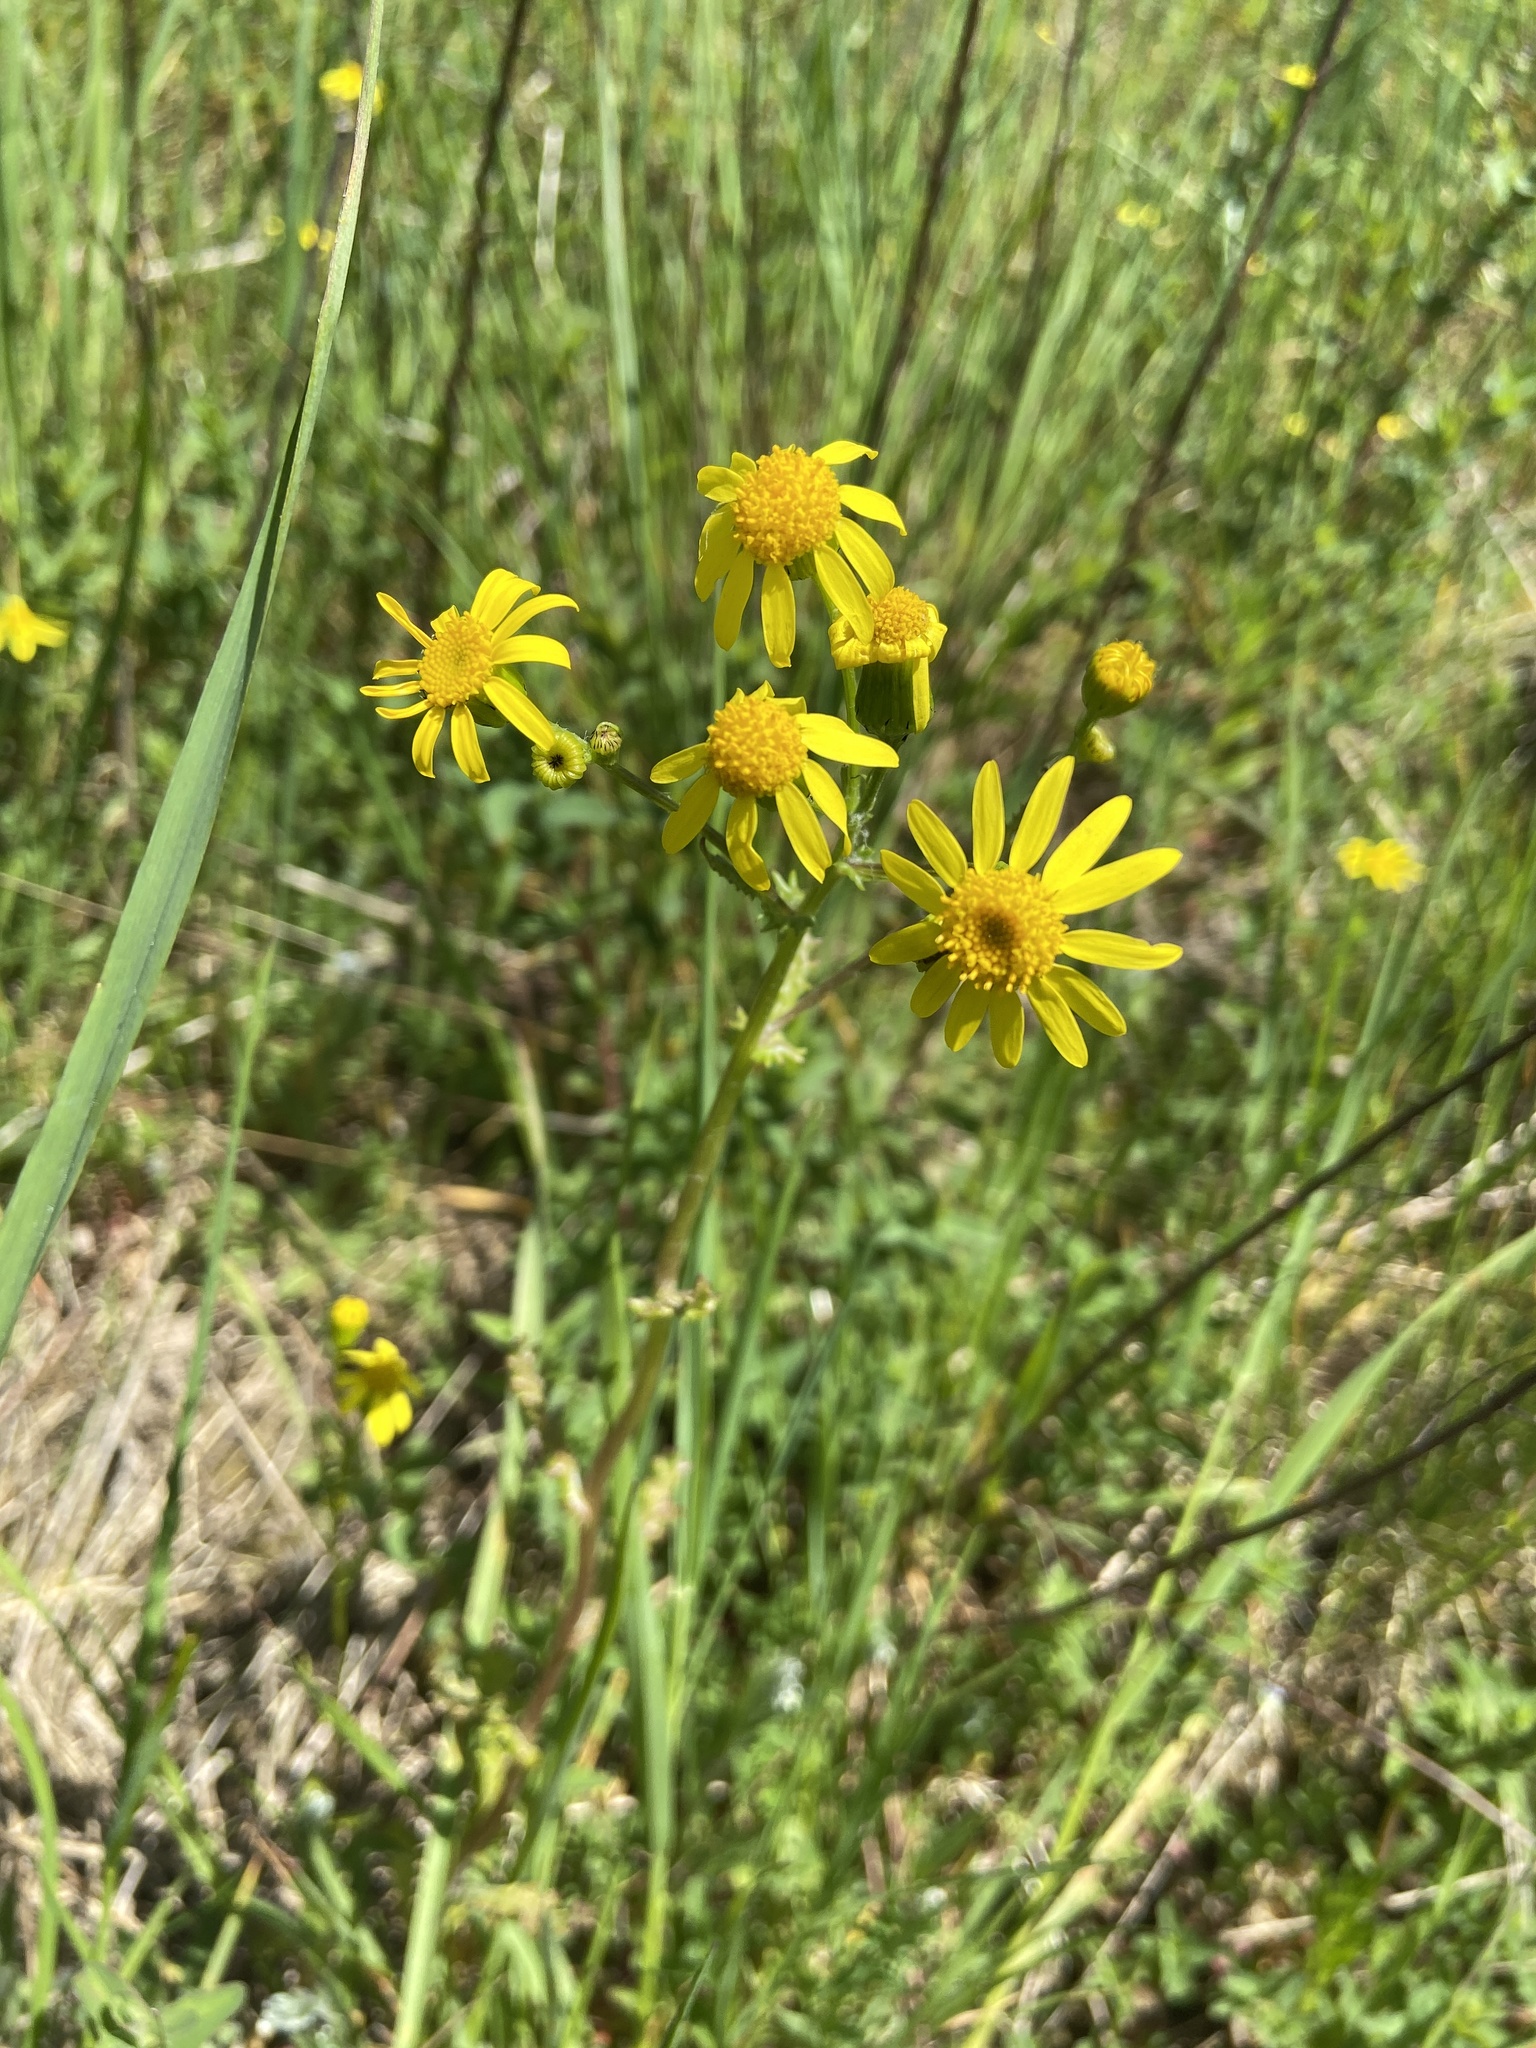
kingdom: Plantae
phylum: Tracheophyta
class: Magnoliopsida
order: Asterales
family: Asteraceae
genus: Senecio
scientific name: Senecio vernalis
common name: Eastern groundsel
